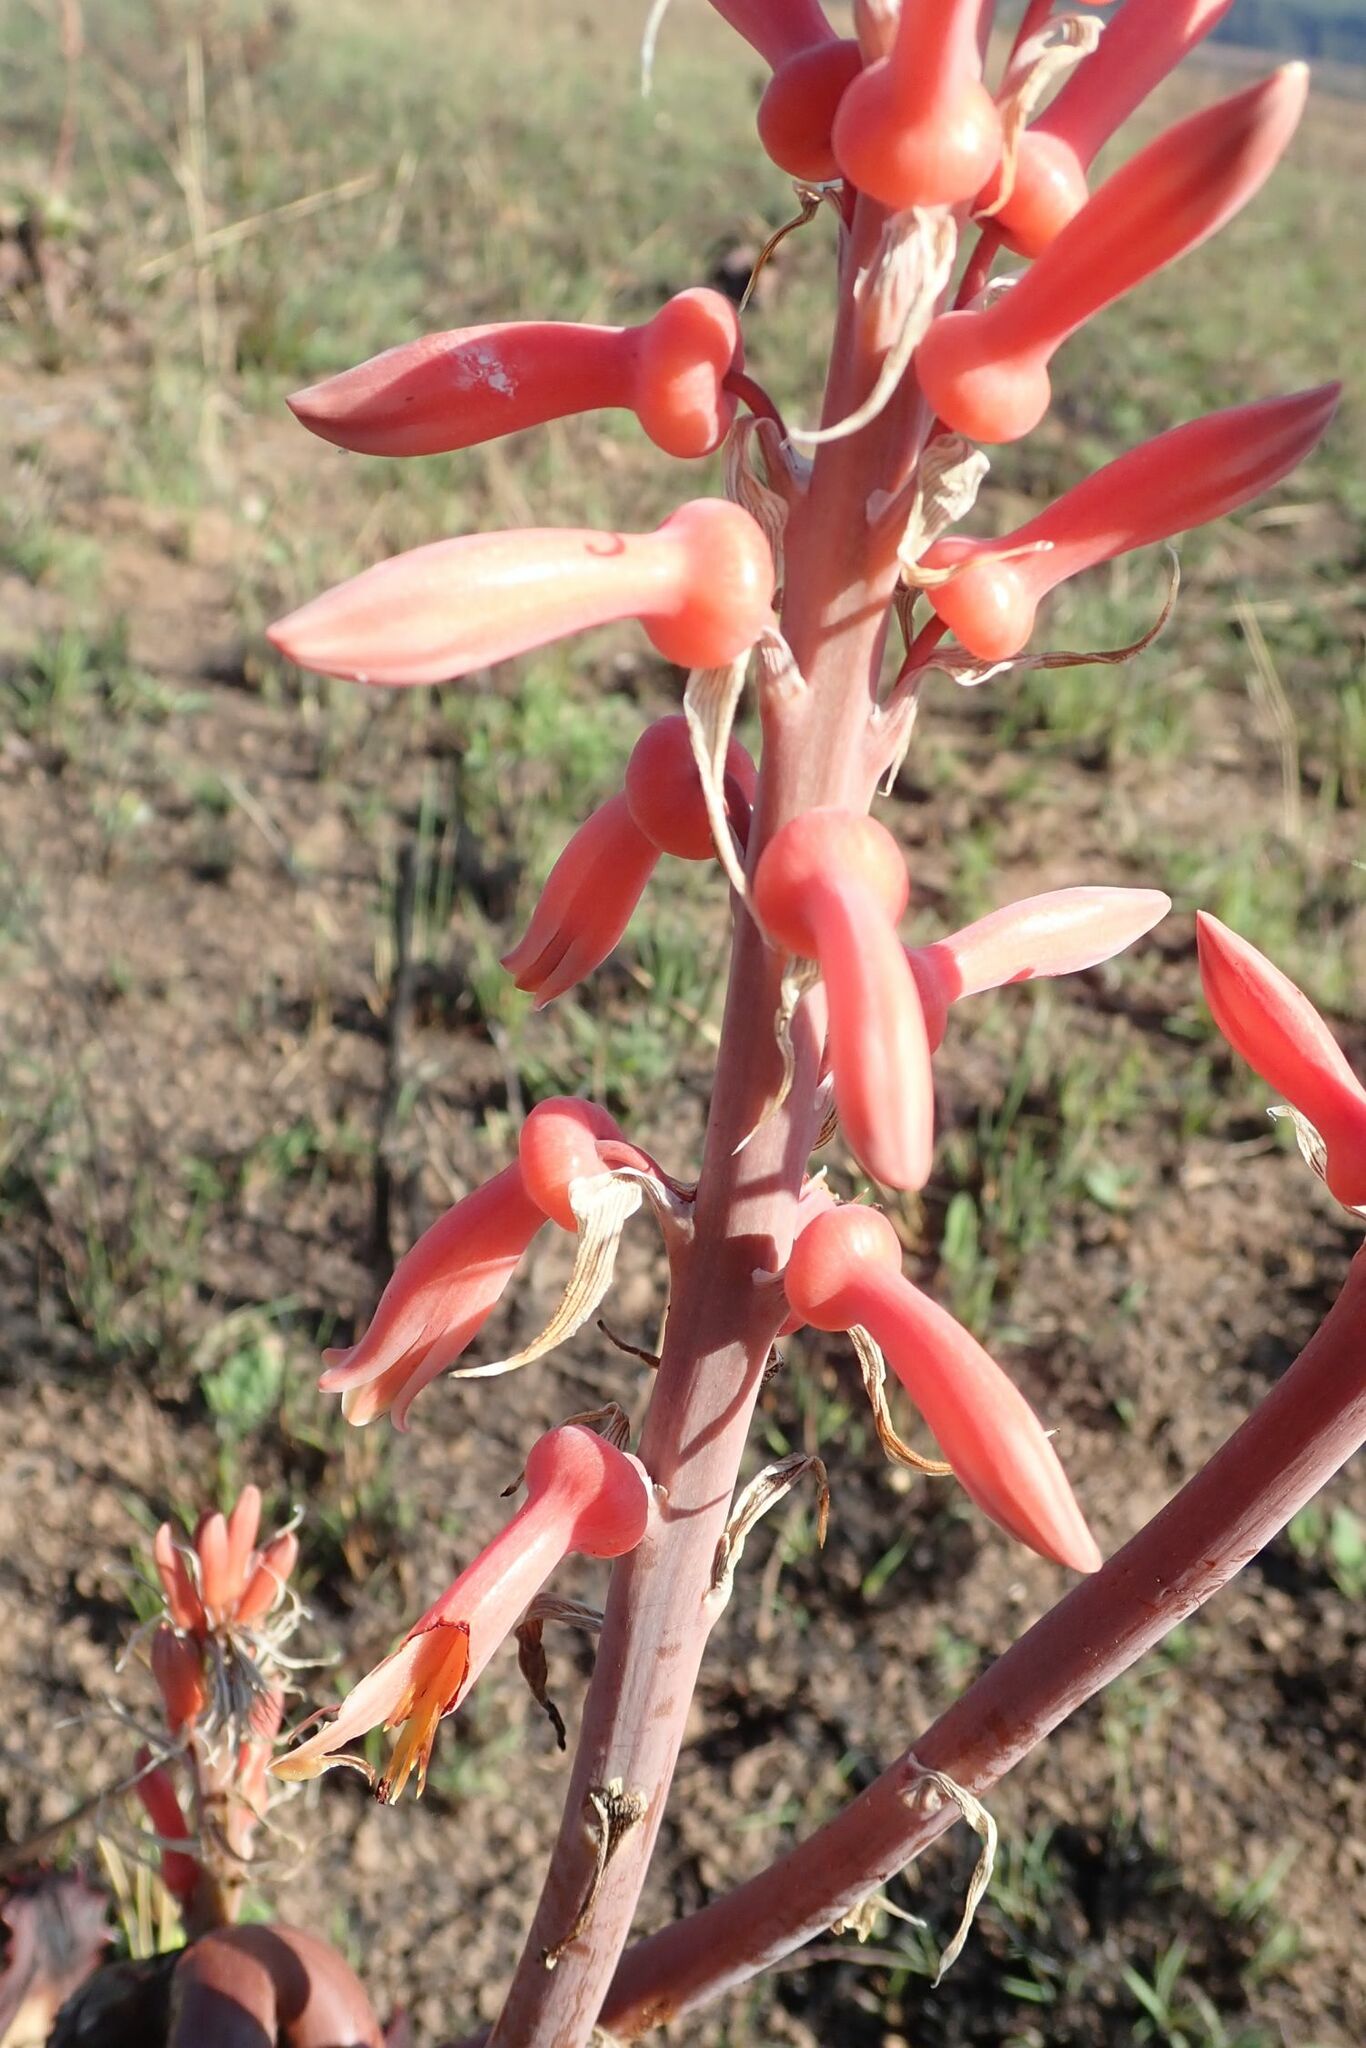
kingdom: Plantae
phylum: Tracheophyta
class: Liliopsida
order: Asparagales
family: Asphodelaceae
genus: Aloe
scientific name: Aloe davyana
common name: Spotted aloe
